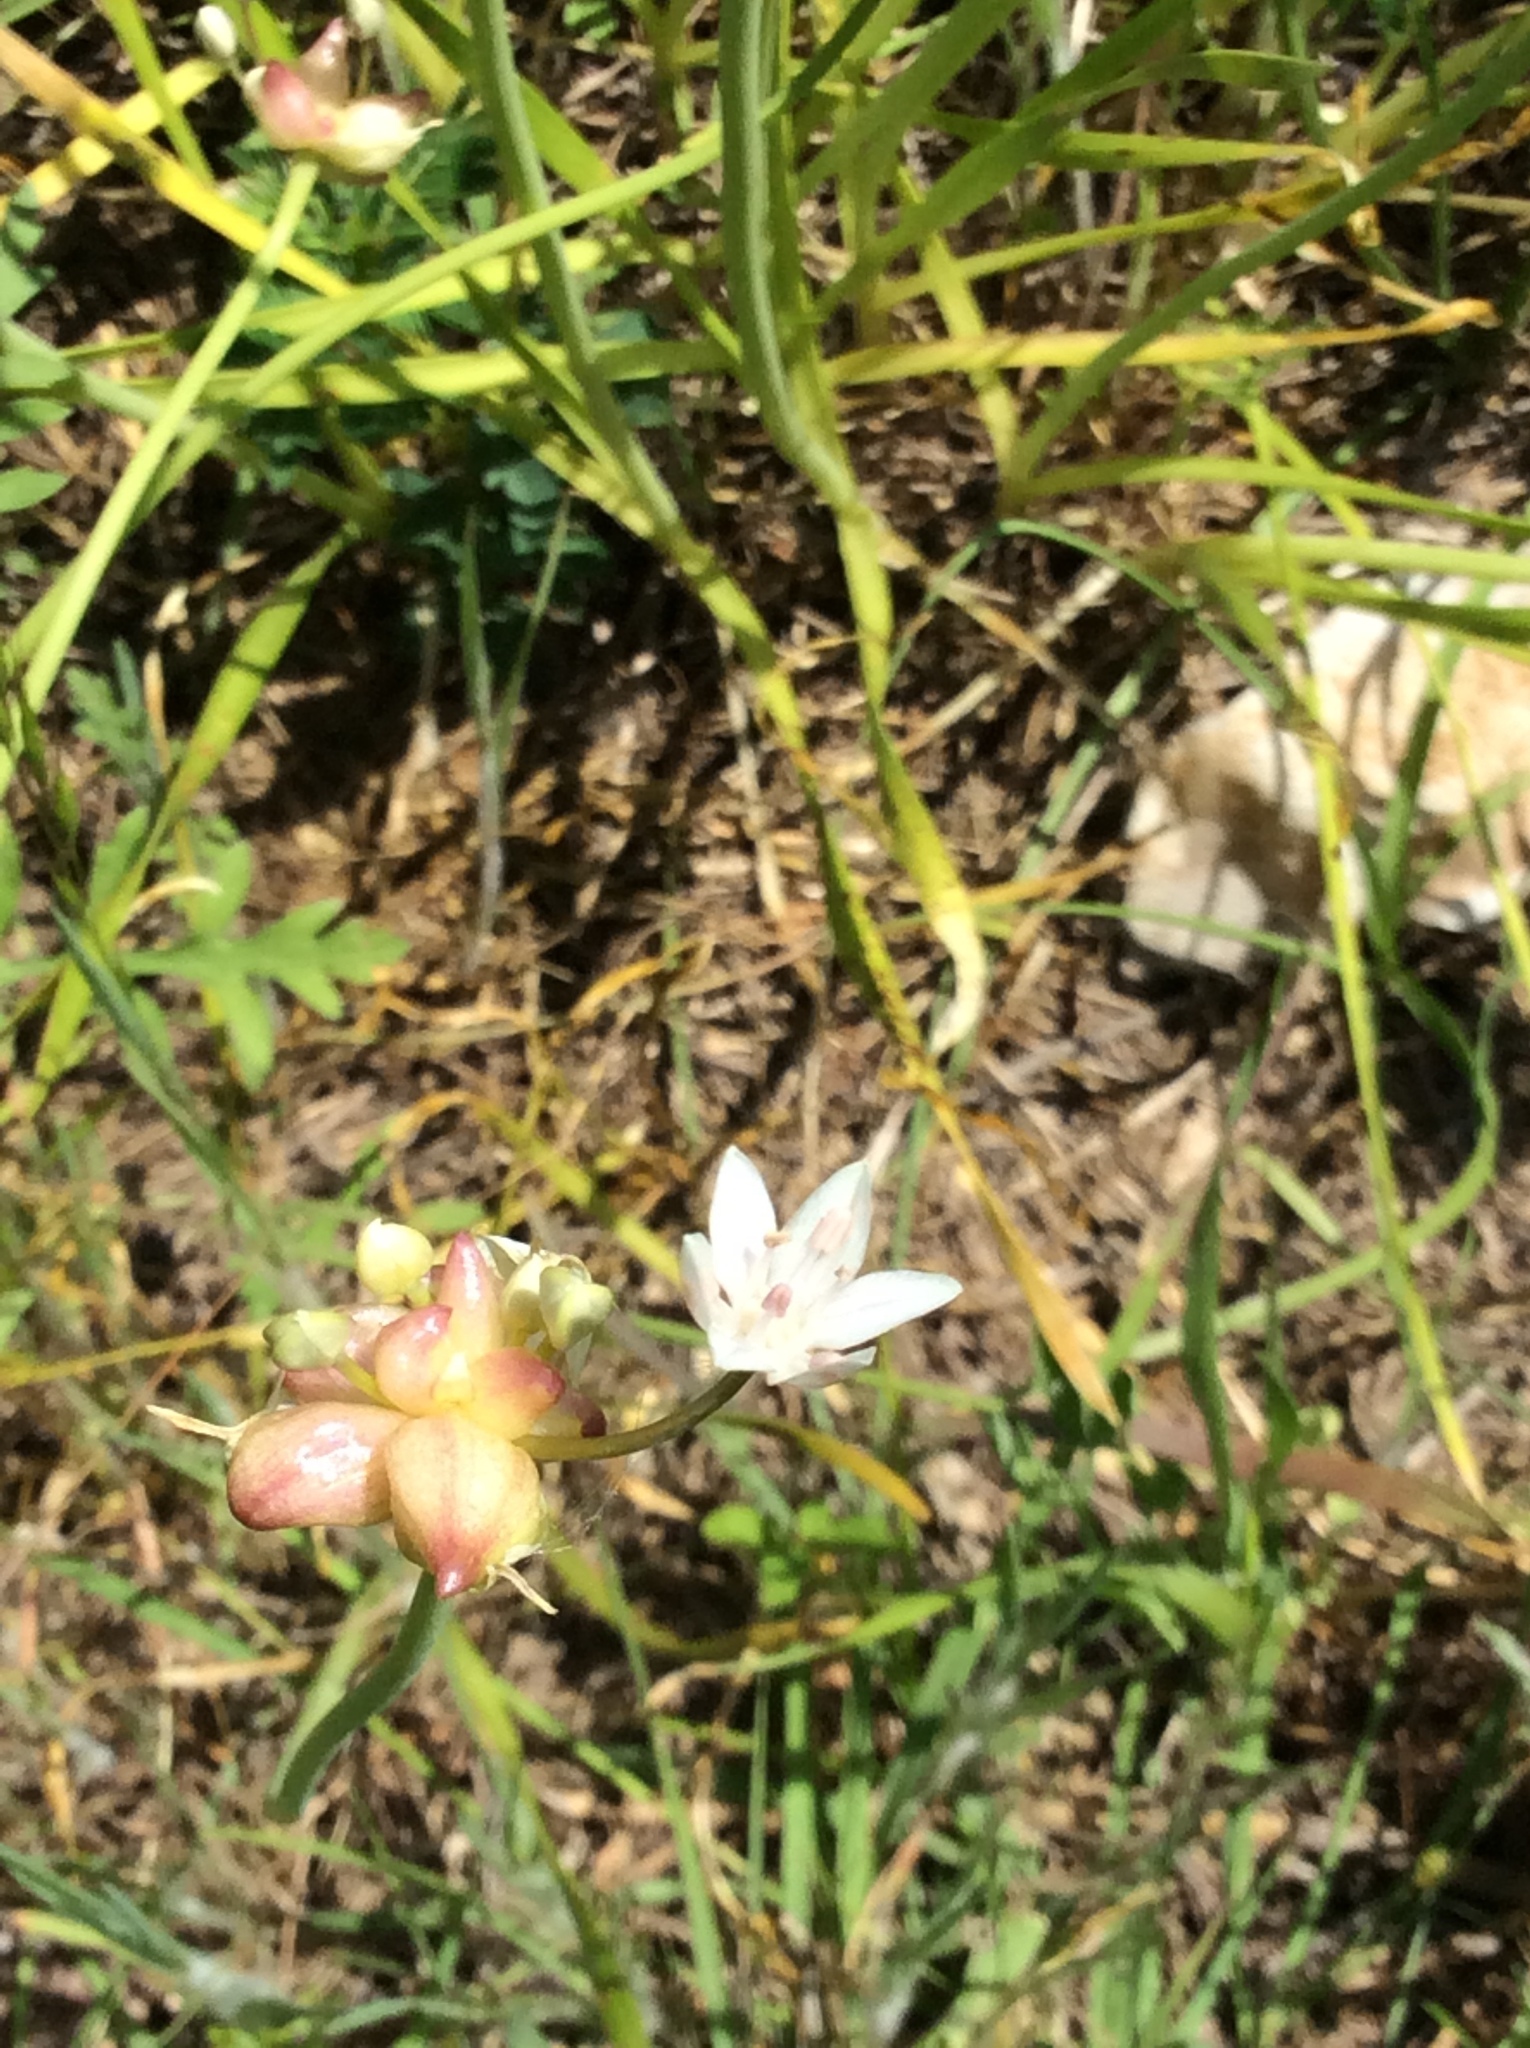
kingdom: Plantae
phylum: Tracheophyta
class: Liliopsida
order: Asparagales
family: Amaryllidaceae
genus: Allium
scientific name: Allium canadense
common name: Meadow garlic
